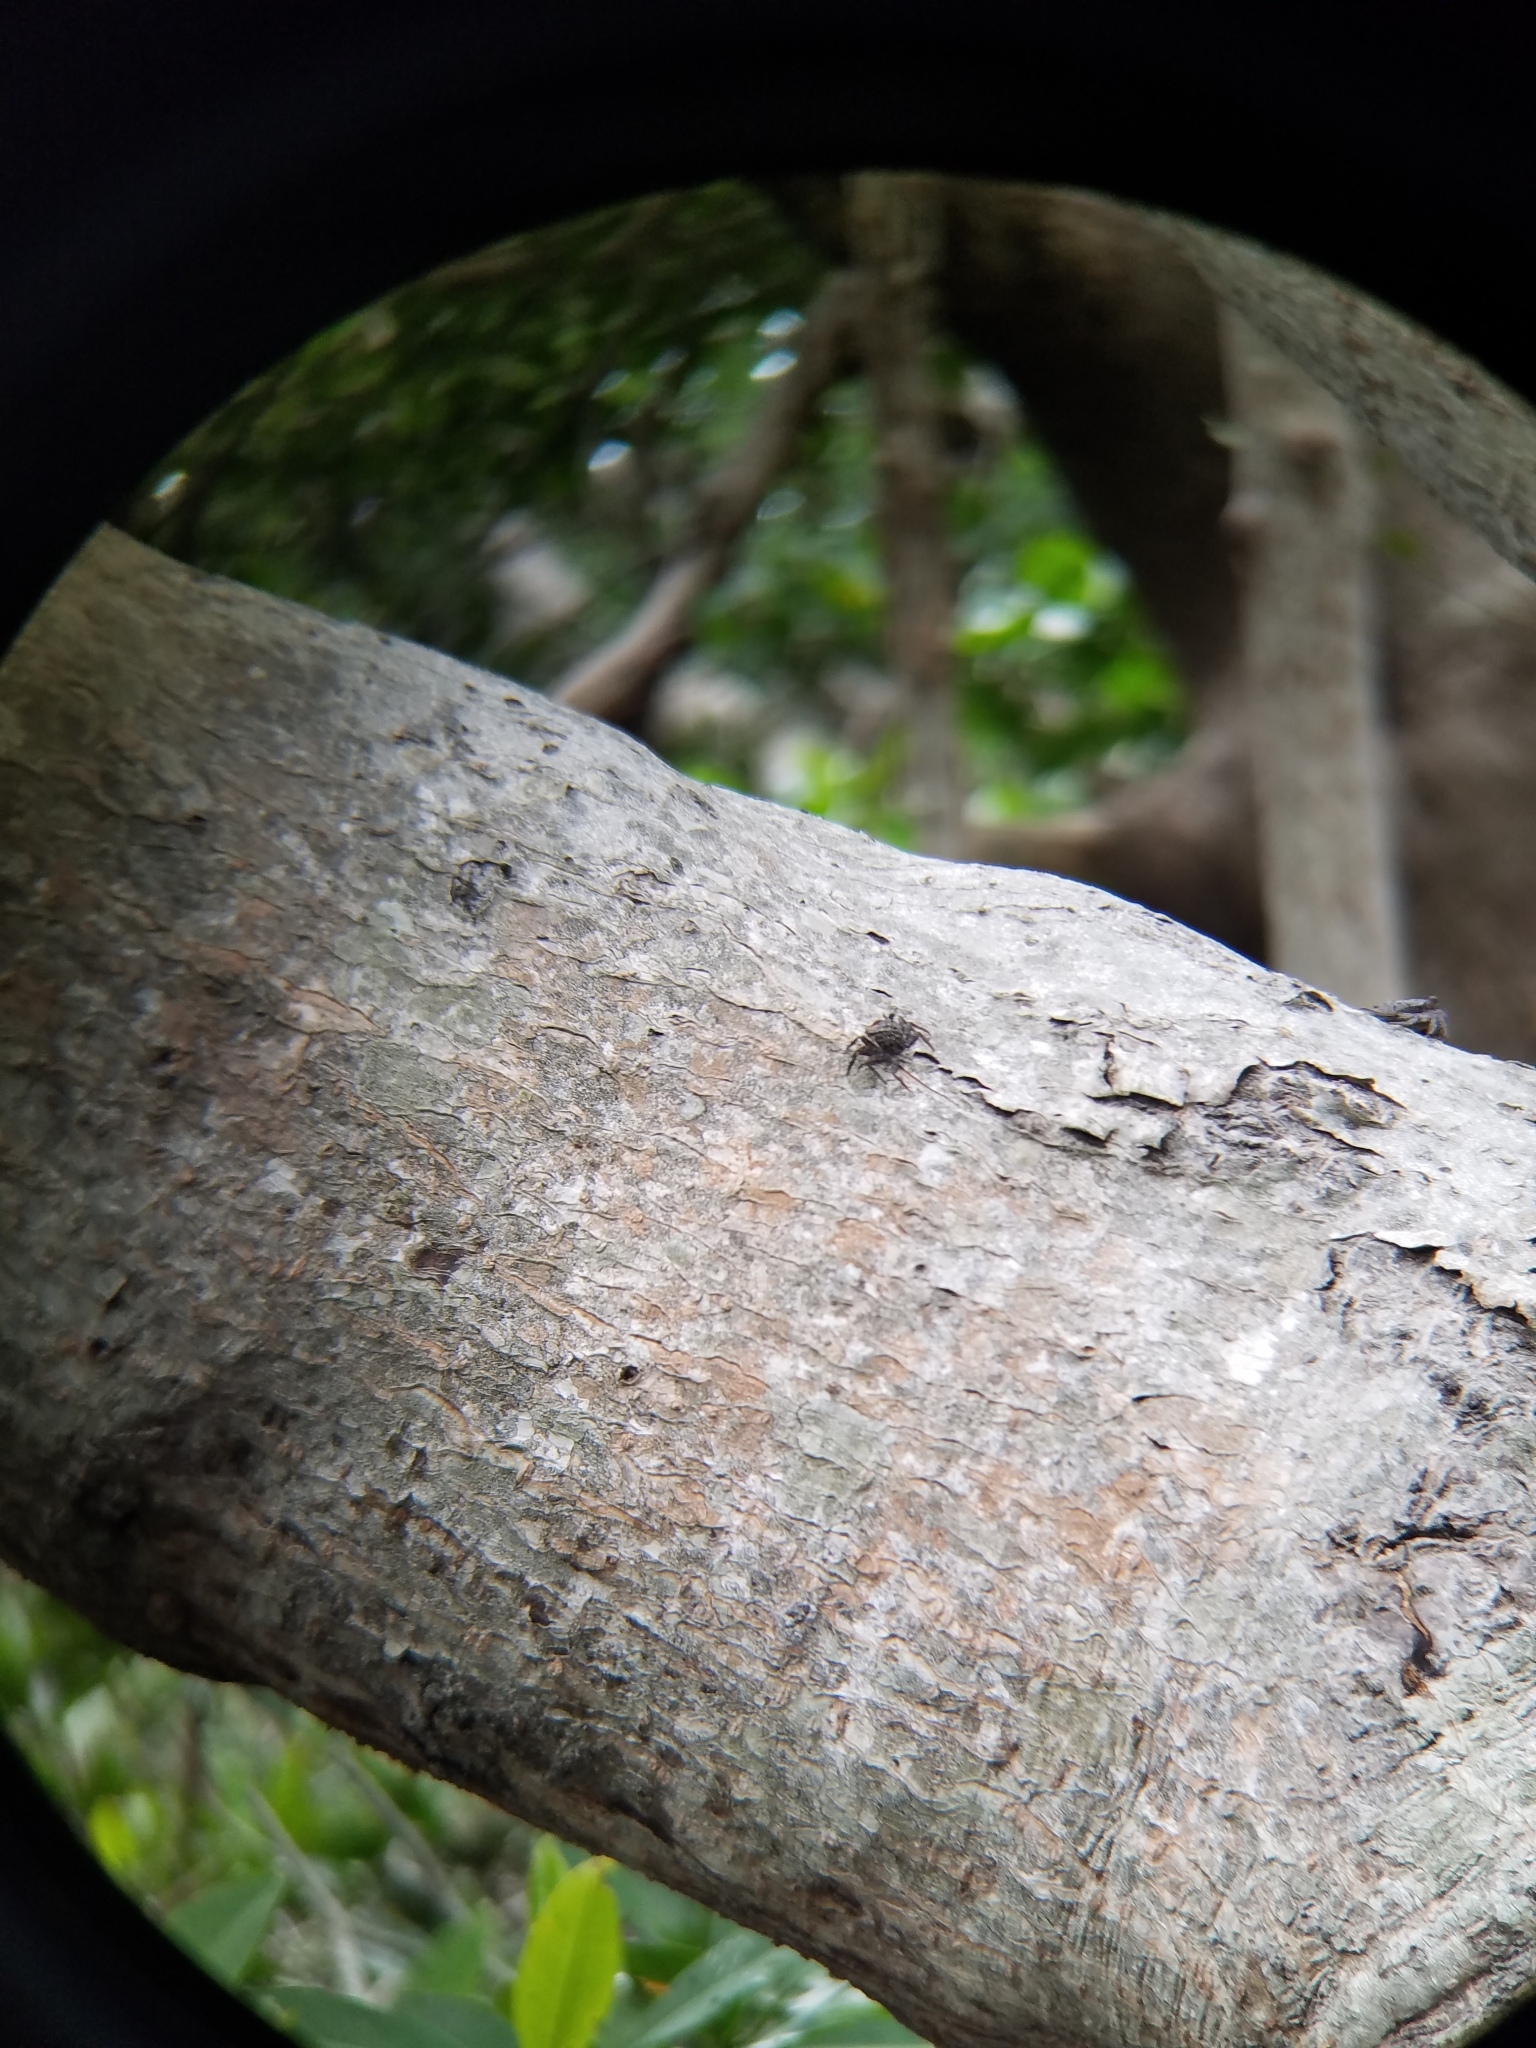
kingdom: Animalia
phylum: Arthropoda
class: Malacostraca
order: Decapoda
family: Sesarmidae
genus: Aratus
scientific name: Aratus pisonii
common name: Mangrove crab
